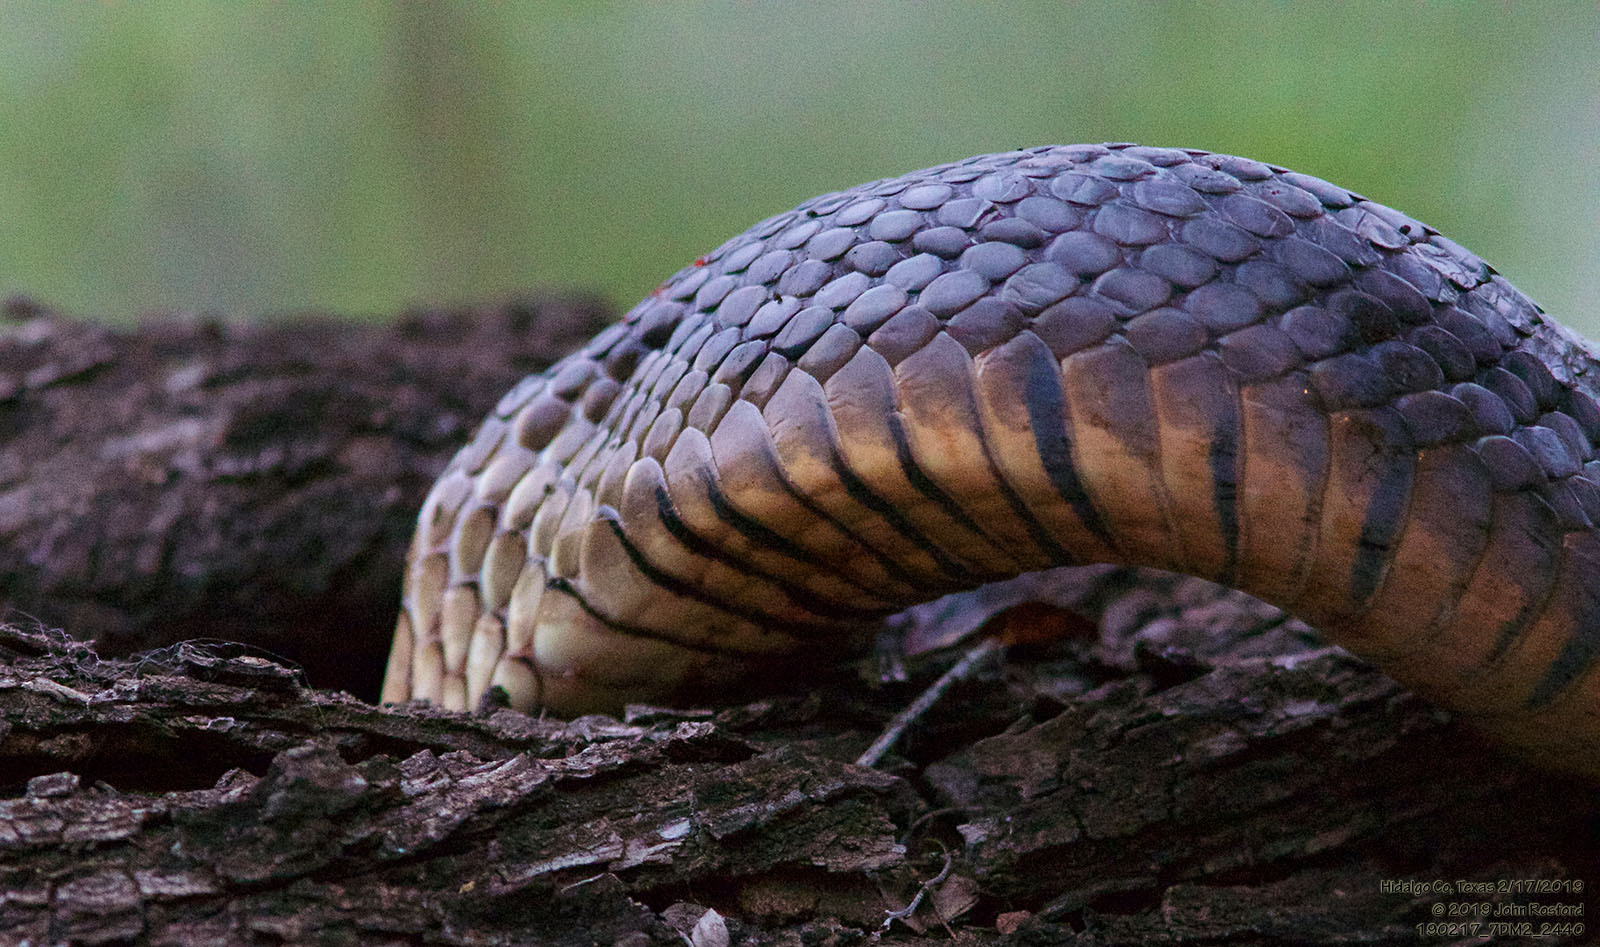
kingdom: Animalia
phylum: Chordata
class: Squamata
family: Colubridae
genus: Drymarchon
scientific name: Drymarchon melanurus
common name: Central american indigo snake
